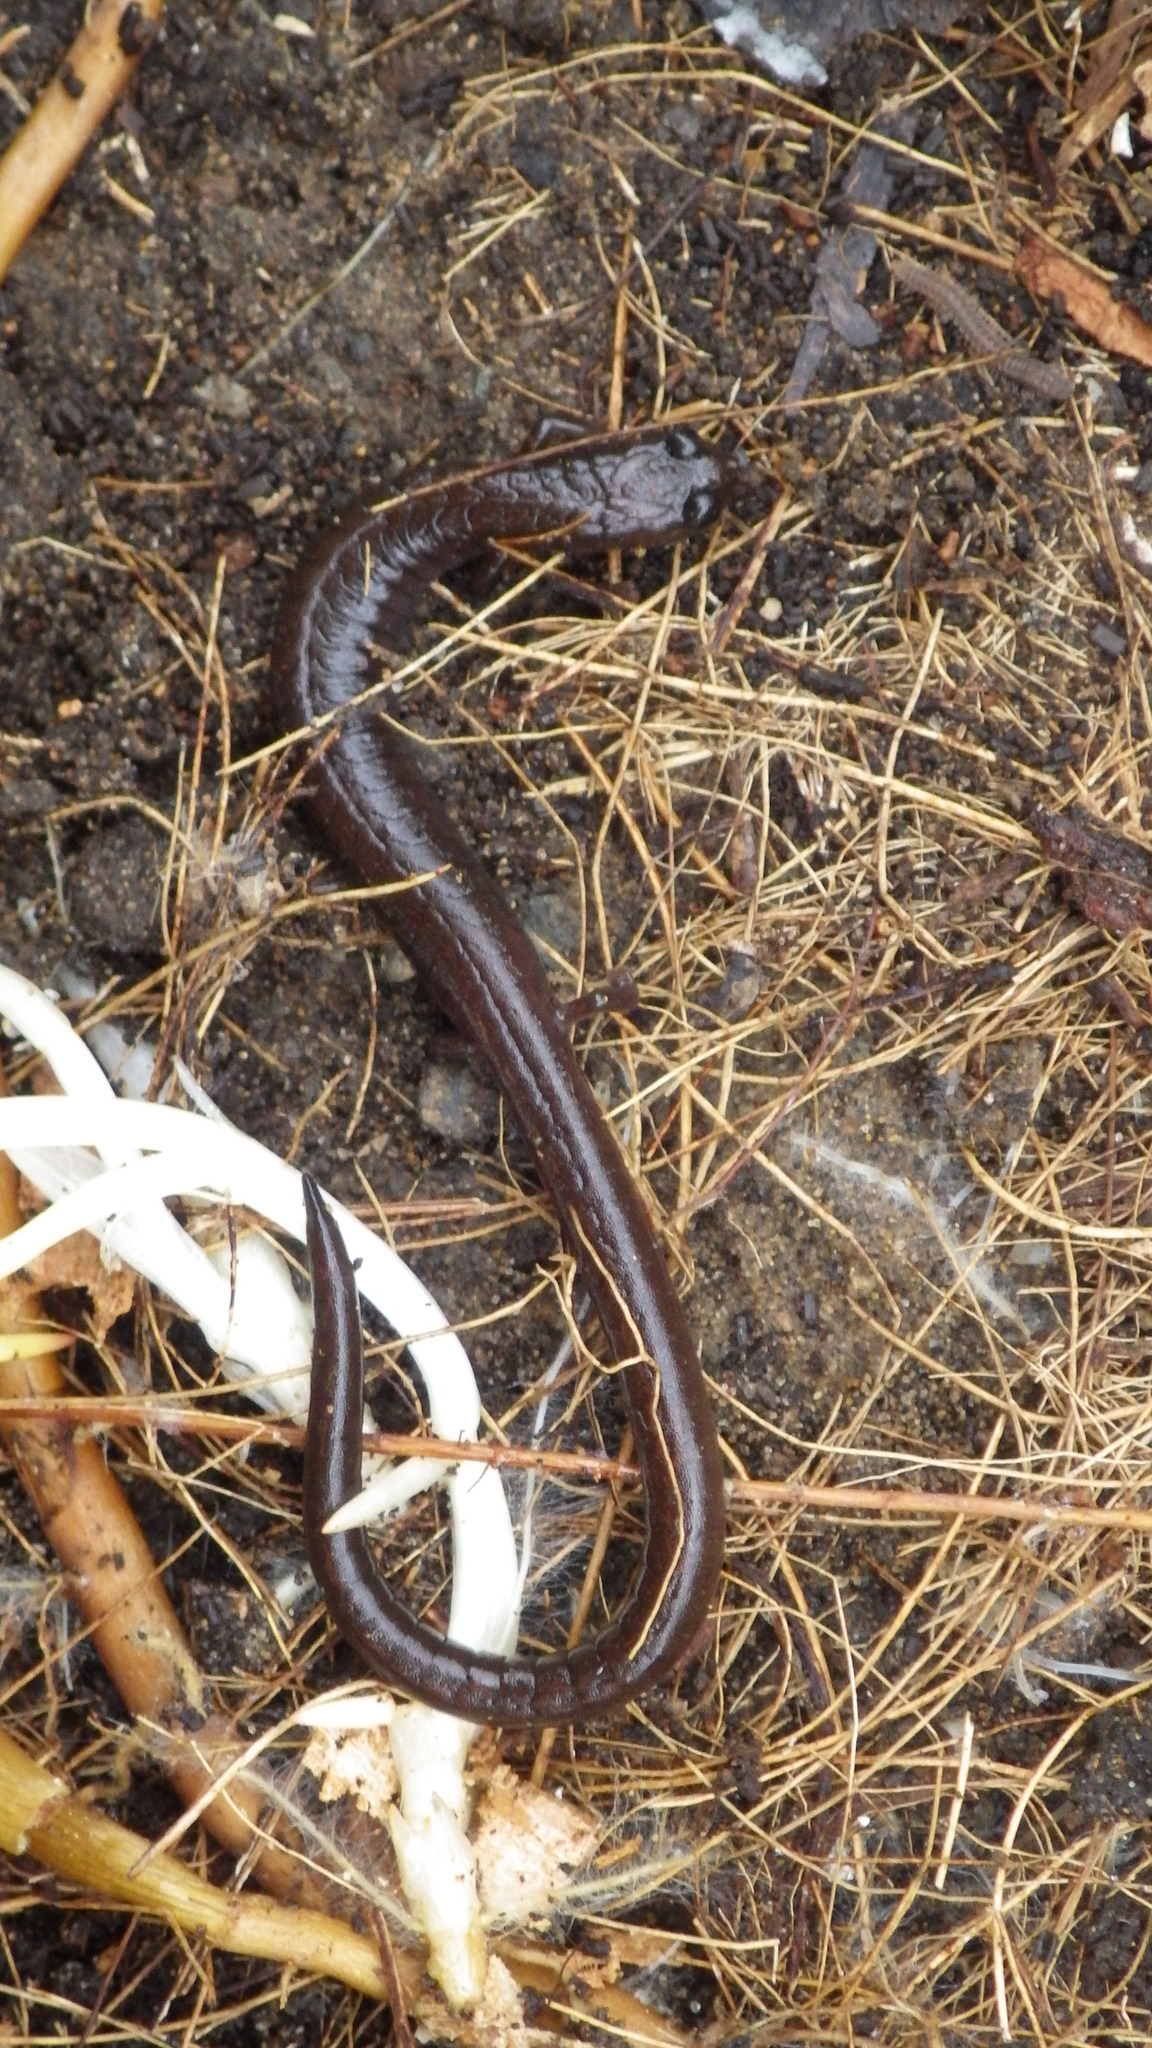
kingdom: Animalia
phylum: Chordata
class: Amphibia
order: Caudata
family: Plethodontidae
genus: Batrachoseps
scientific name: Batrachoseps attenuatus
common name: California slender salamander
